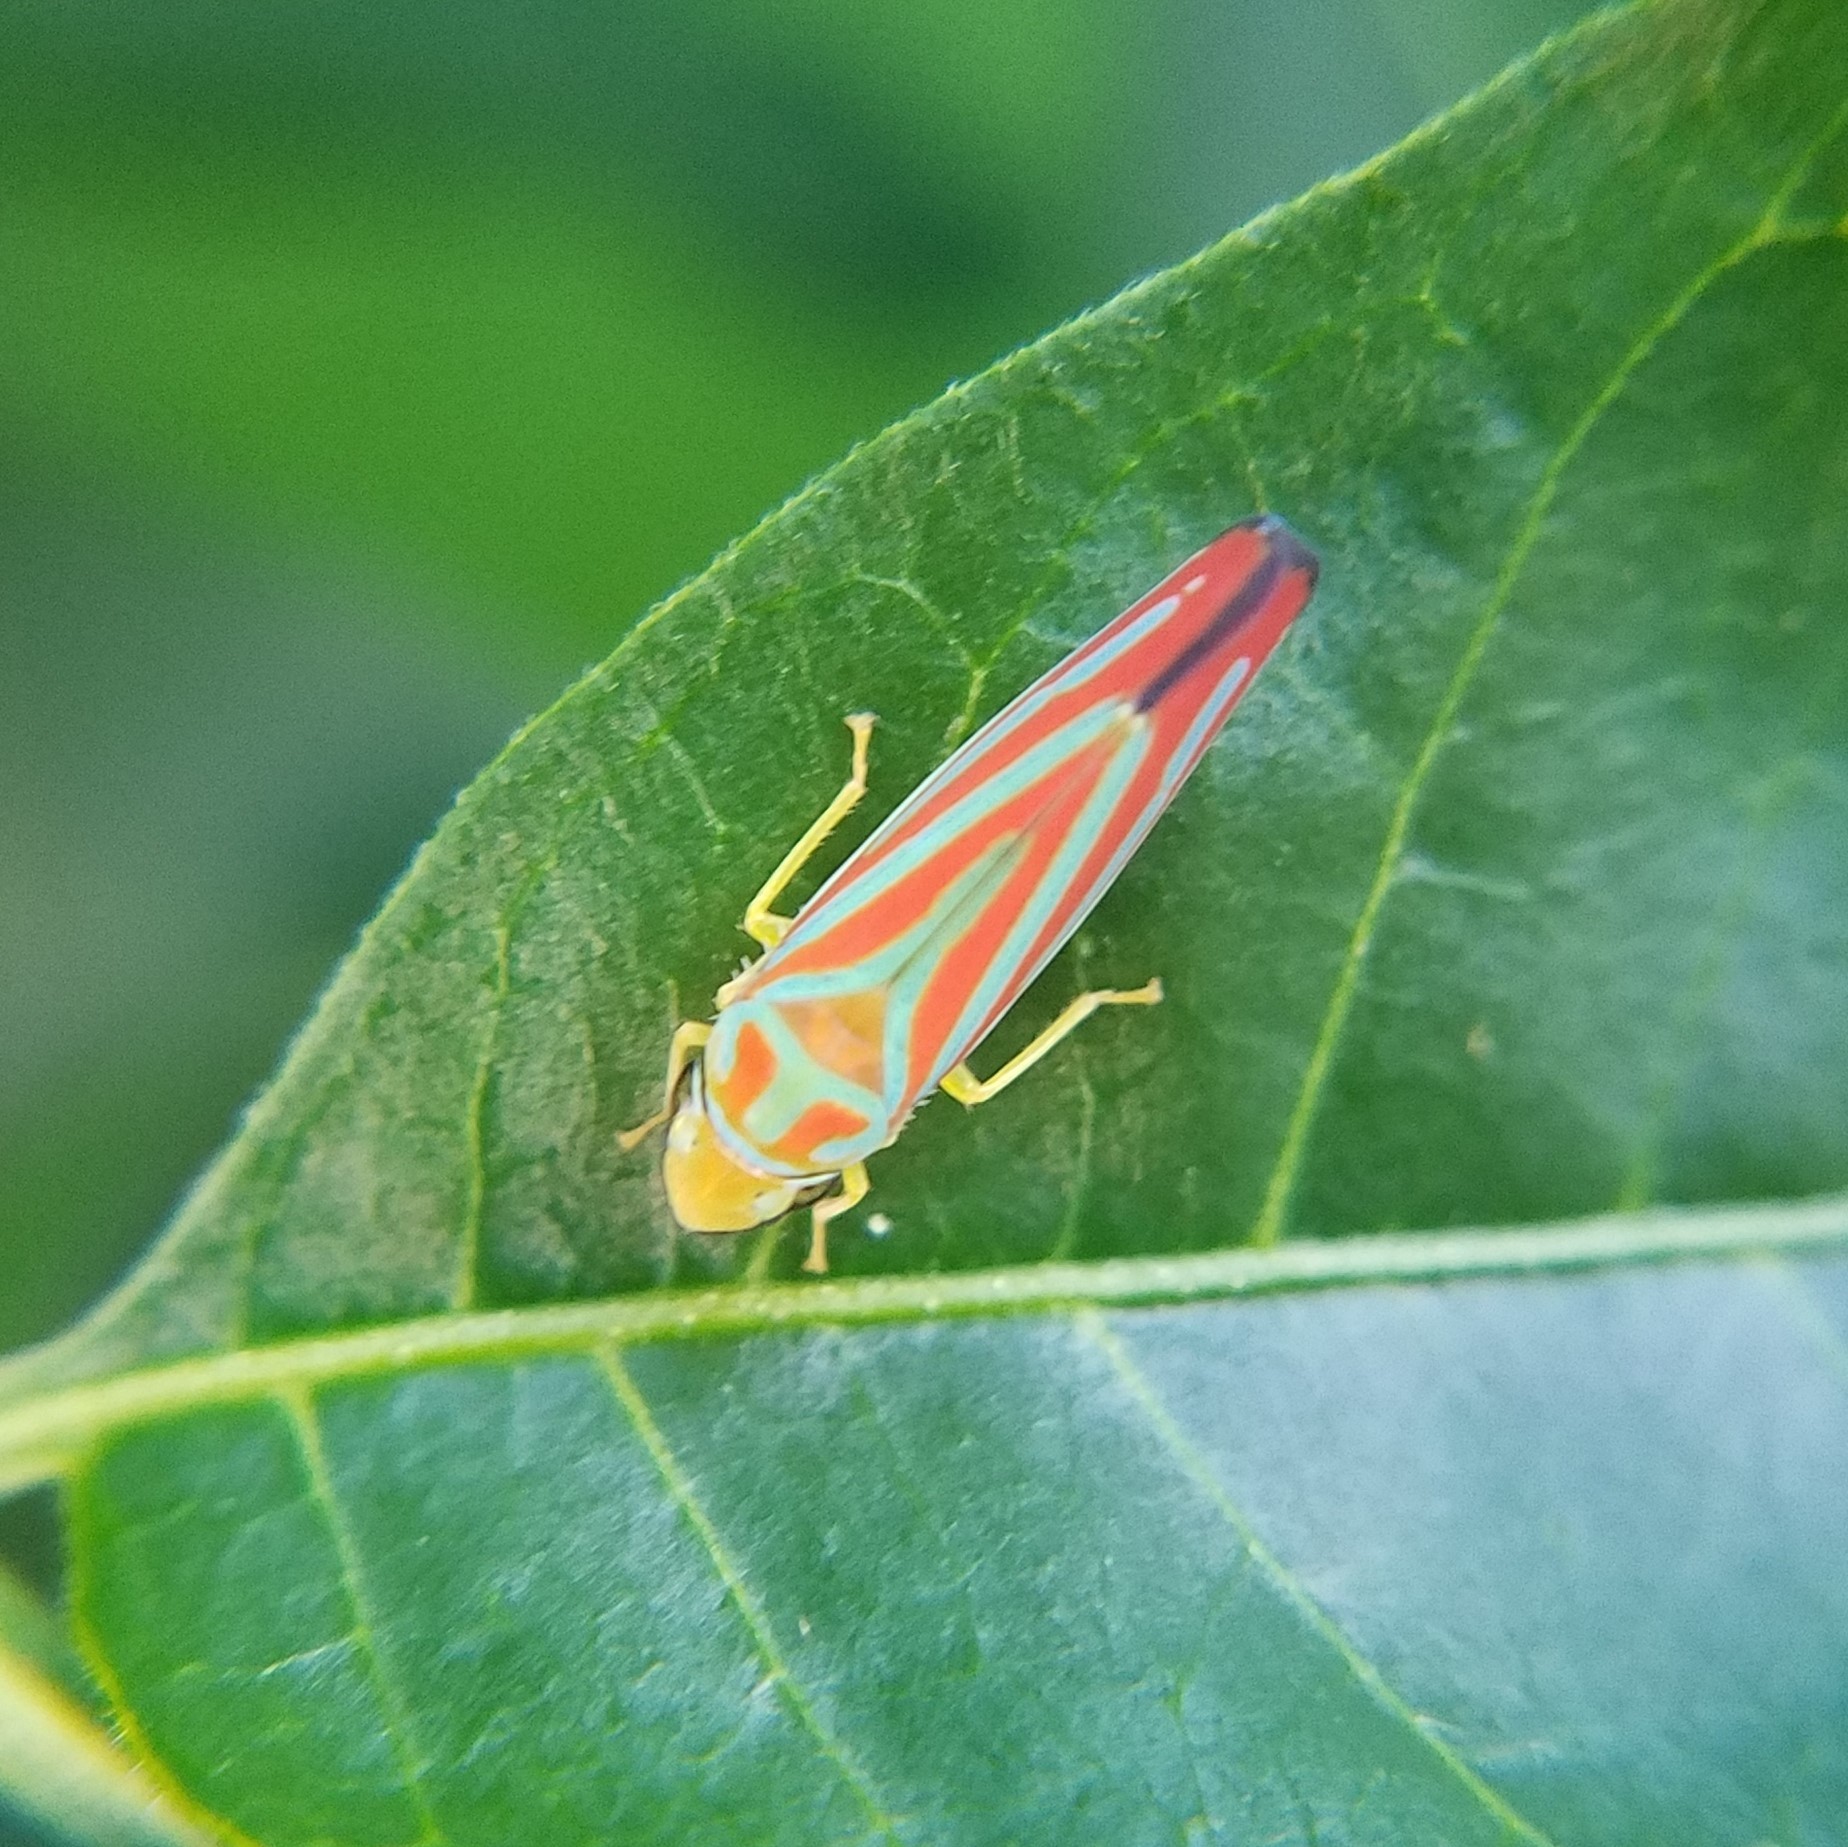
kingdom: Animalia
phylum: Arthropoda
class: Insecta
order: Hemiptera
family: Cicadellidae
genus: Graphocephala
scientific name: Graphocephala coccinea
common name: Candy-striped leafhopper
